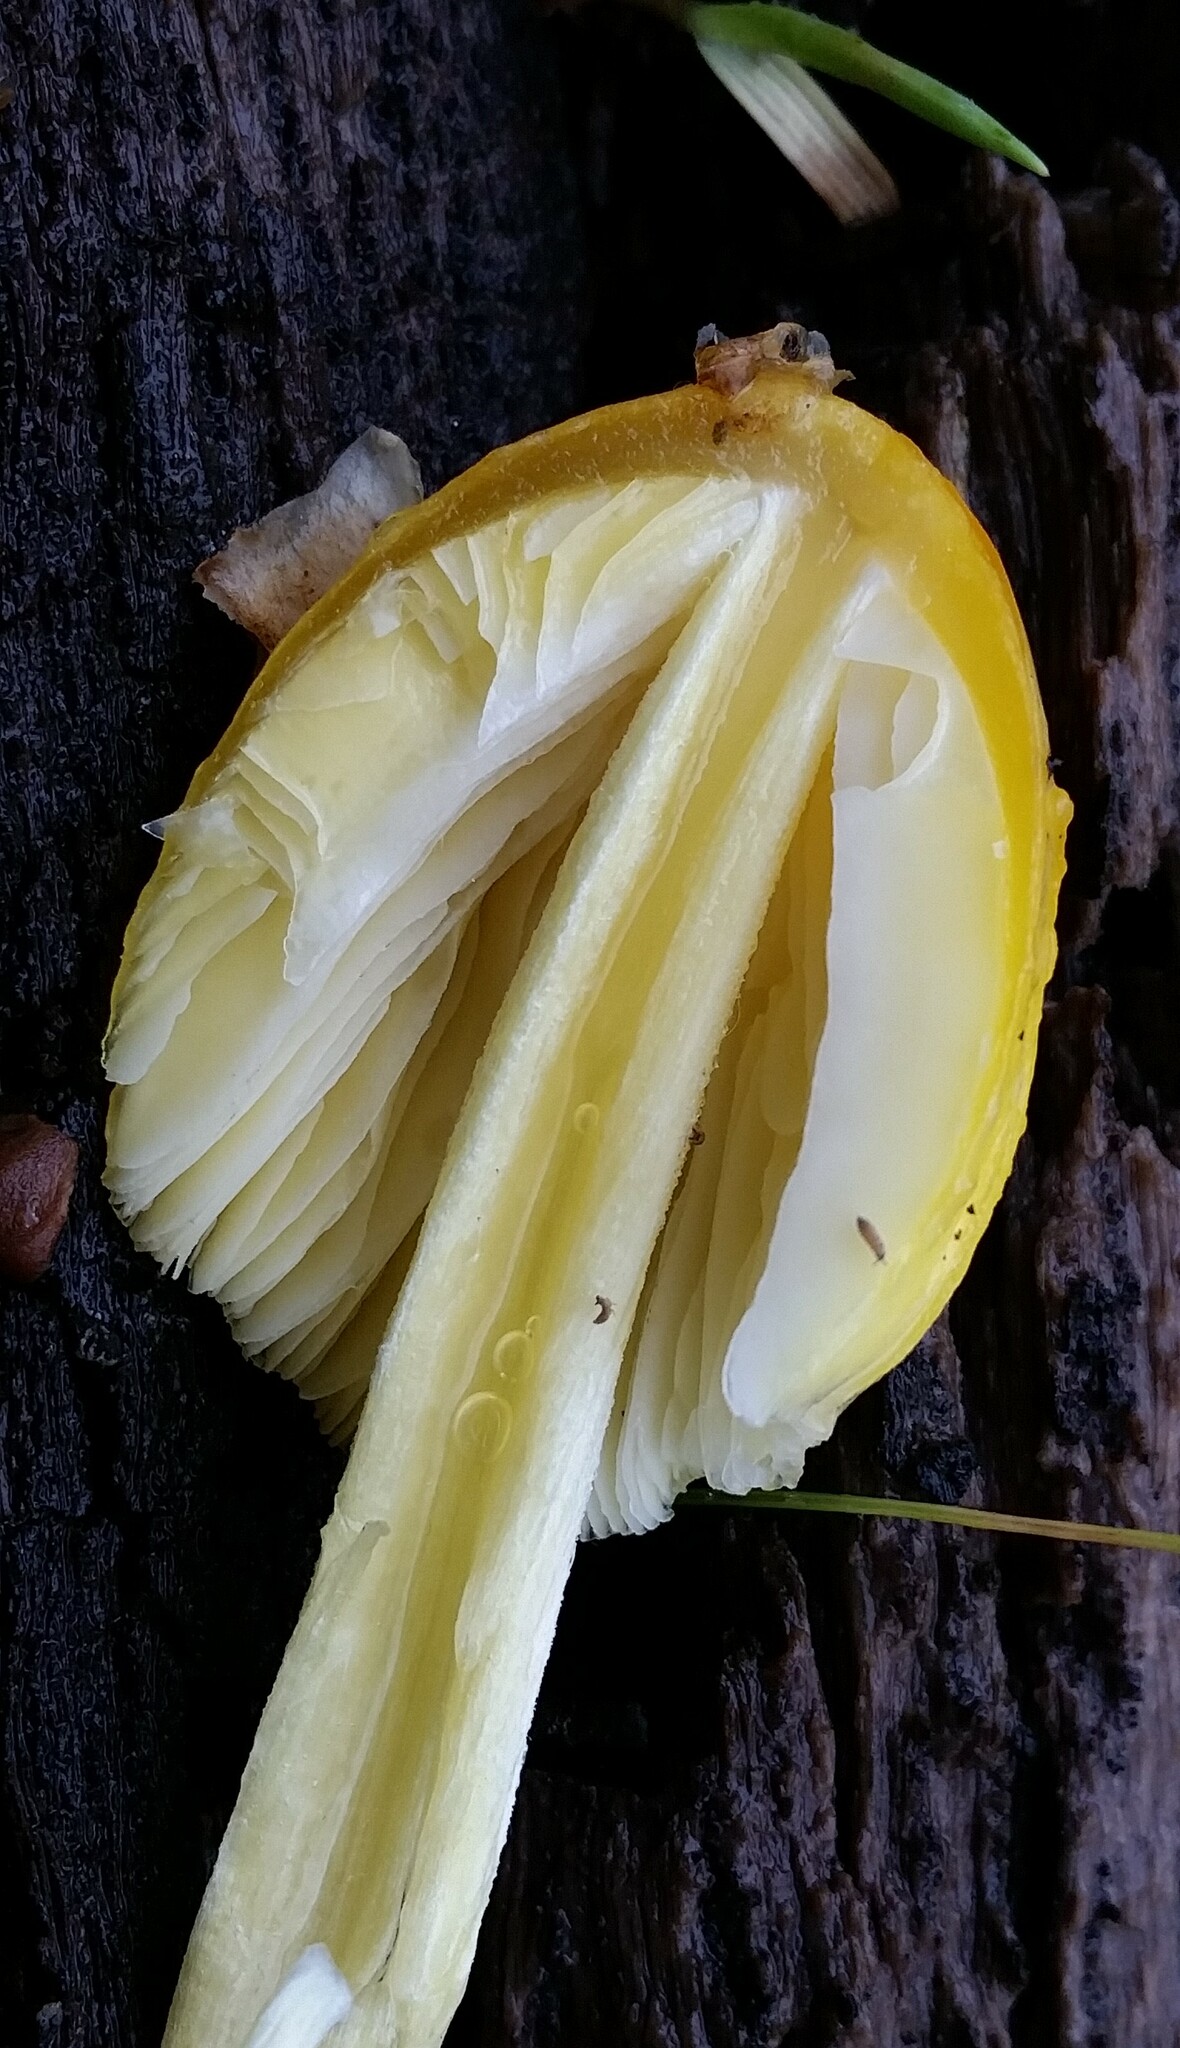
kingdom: Fungi
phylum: Basidiomycota
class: Agaricomycetes
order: Agaricales
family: Bolbitiaceae
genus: Bolbitius
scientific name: Bolbitius titubans
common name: Yellow fieldcap
